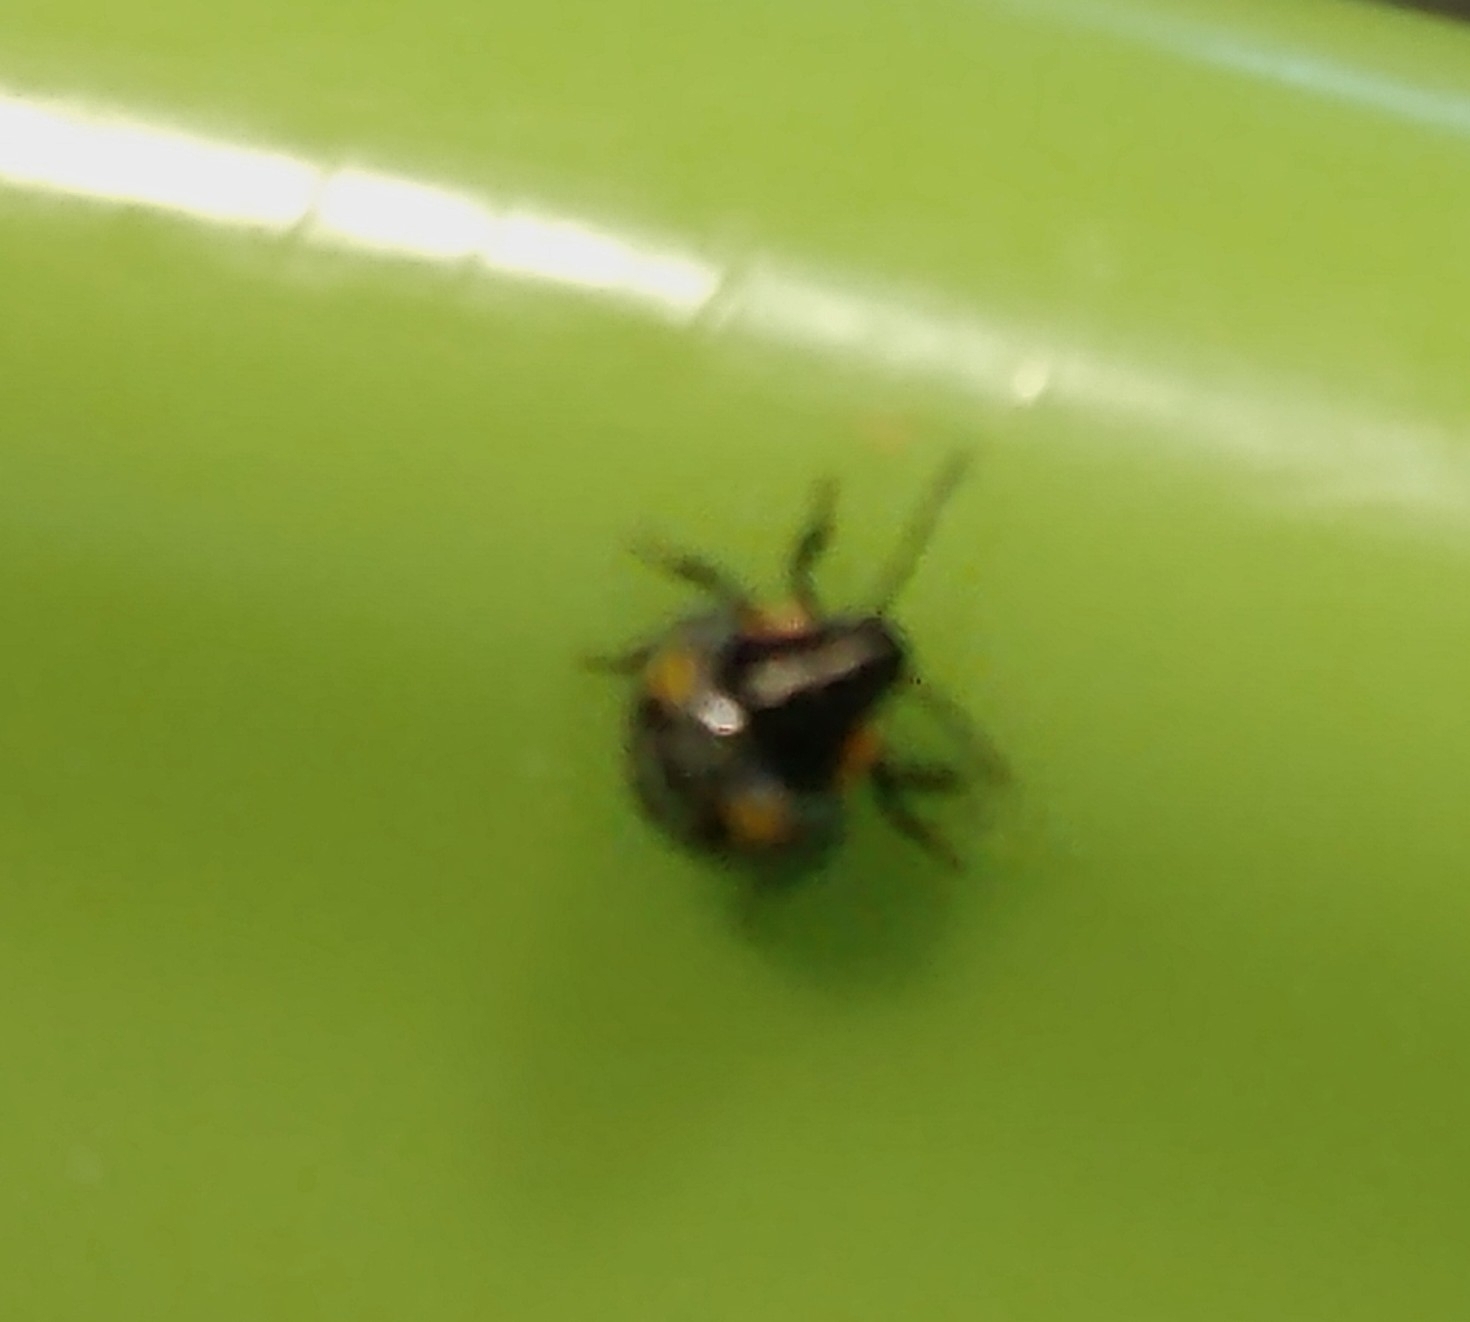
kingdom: Animalia
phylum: Arthropoda
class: Insecta
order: Hemiptera
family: Pentatomidae
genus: Chinavia
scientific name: Chinavia hilaris
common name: Green stink bug
